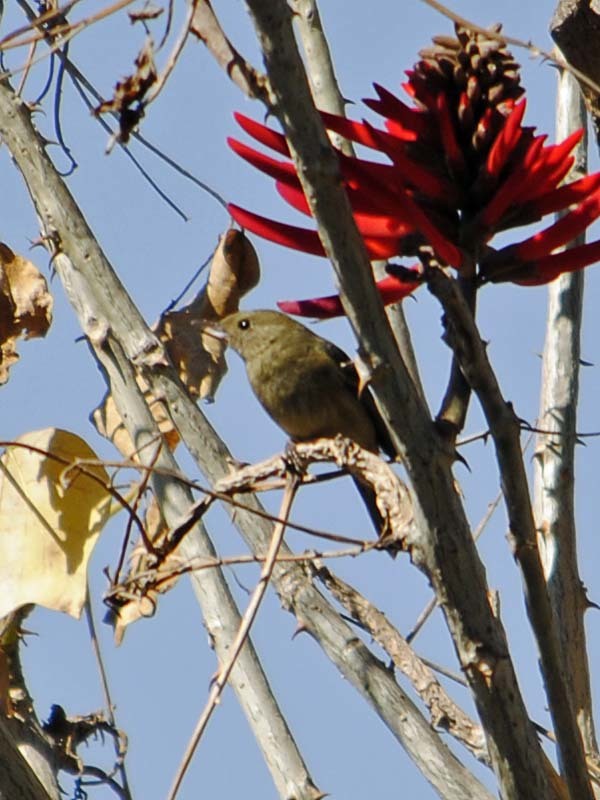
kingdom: Animalia
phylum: Chordata
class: Aves
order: Passeriformes
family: Thraupidae
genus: Diglossa
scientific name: Diglossa baritula
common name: Cinnamon-bellied flowerpiercer
